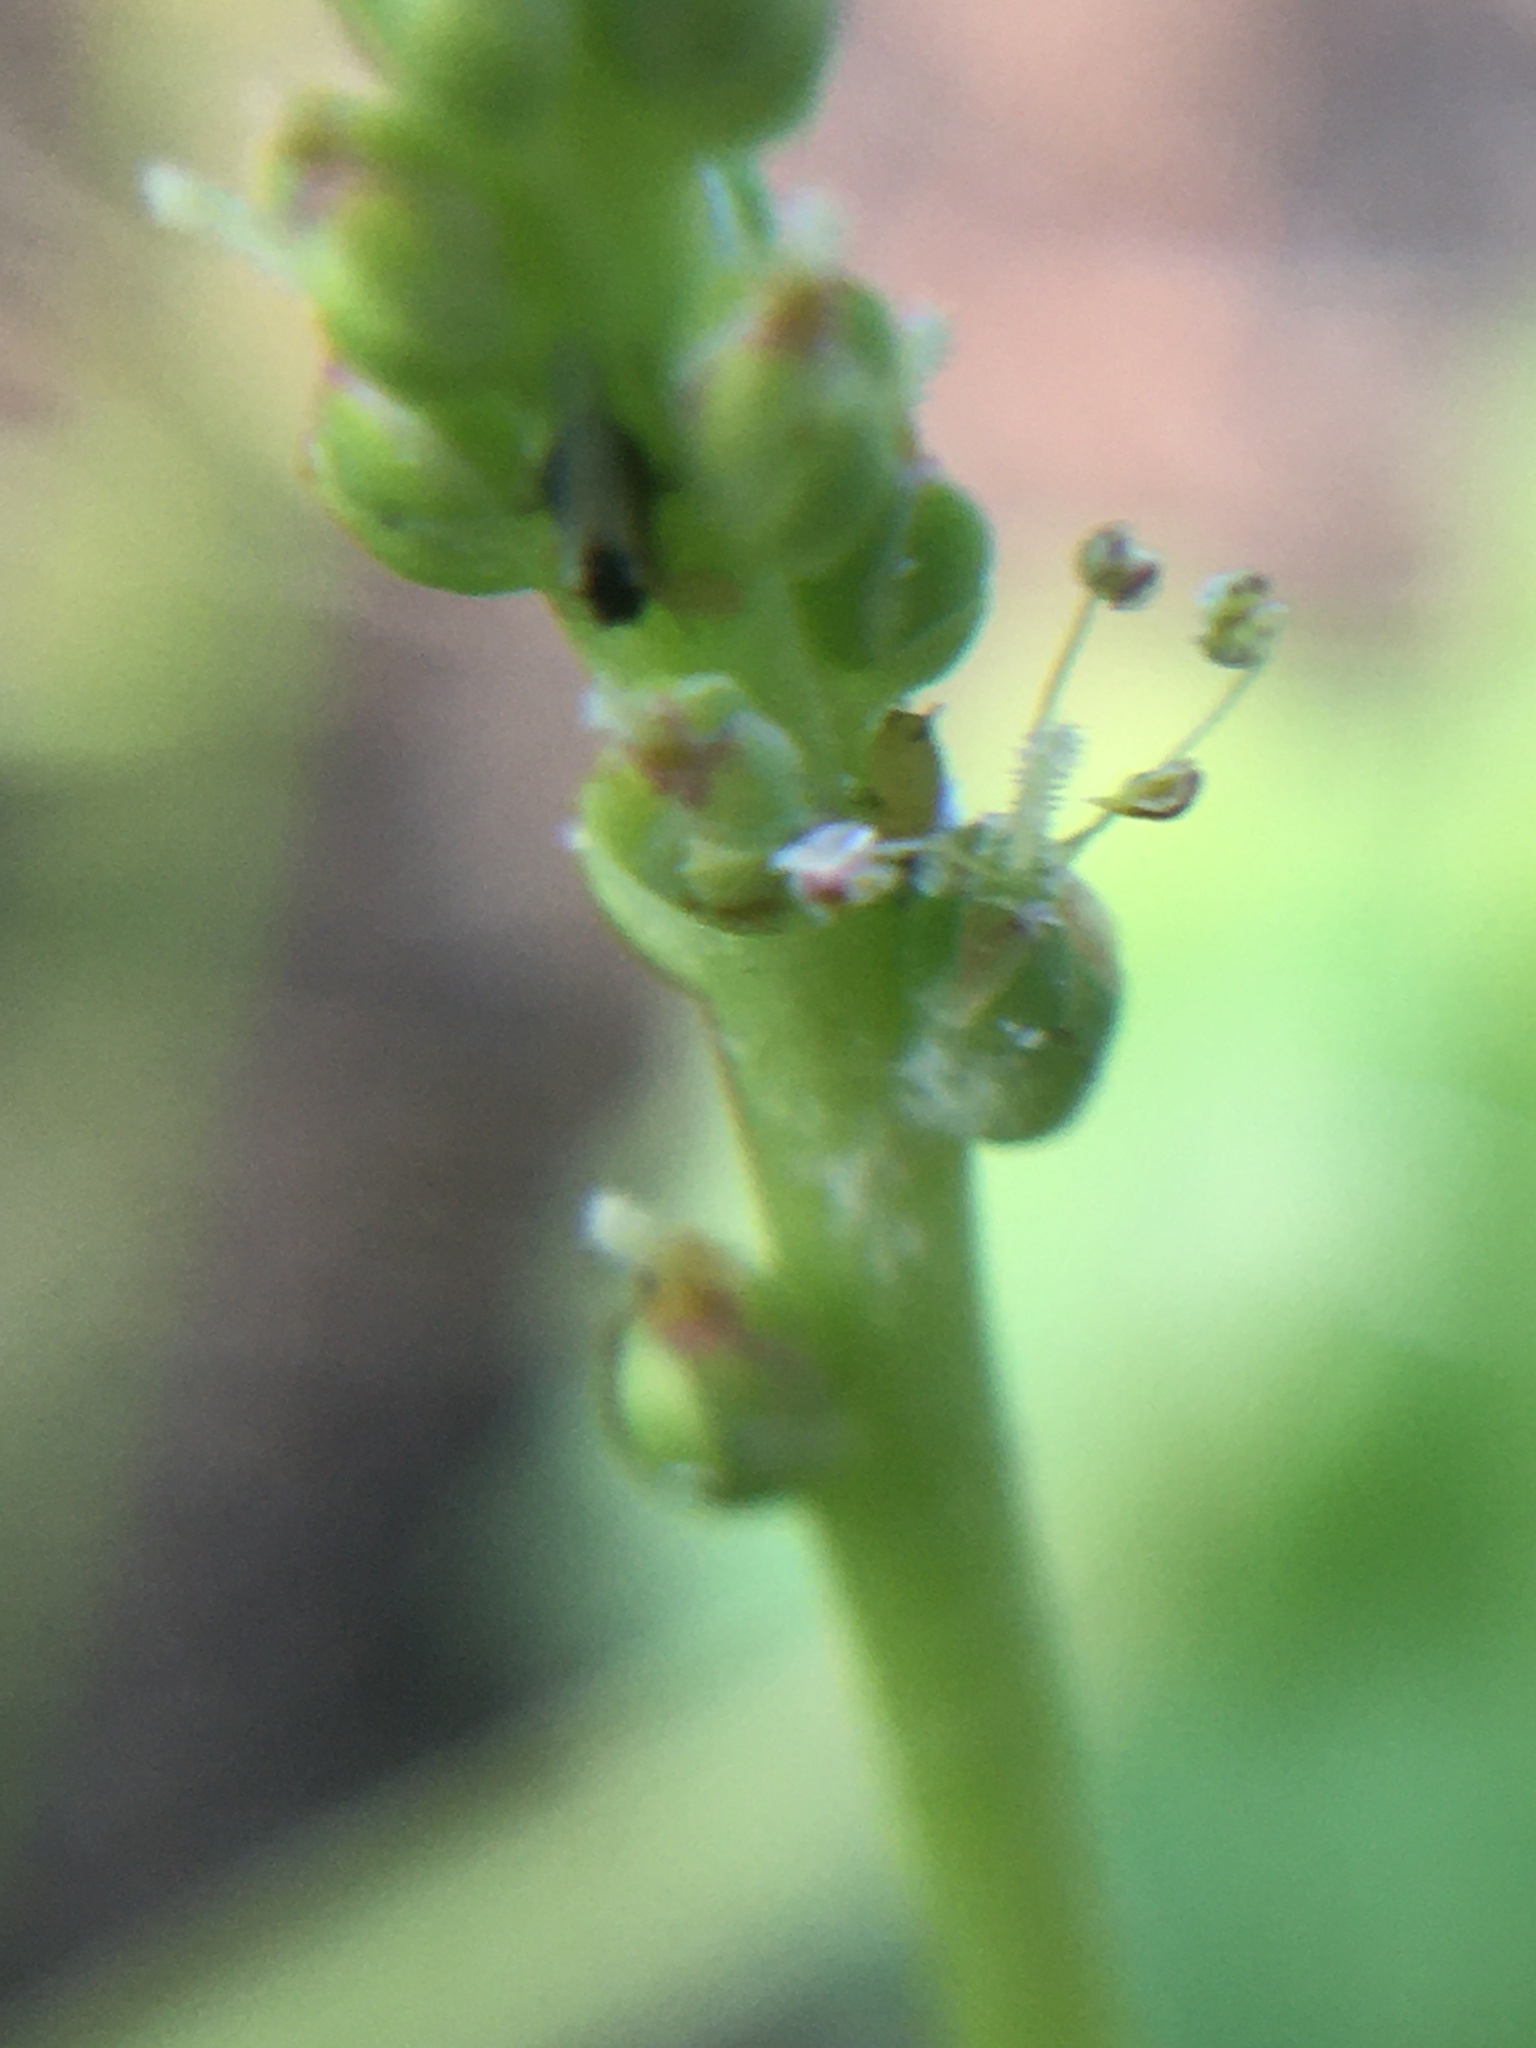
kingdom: Plantae
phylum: Tracheophyta
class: Magnoliopsida
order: Lamiales
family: Plantaginaceae
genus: Plantago
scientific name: Plantago major
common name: Common plantain
